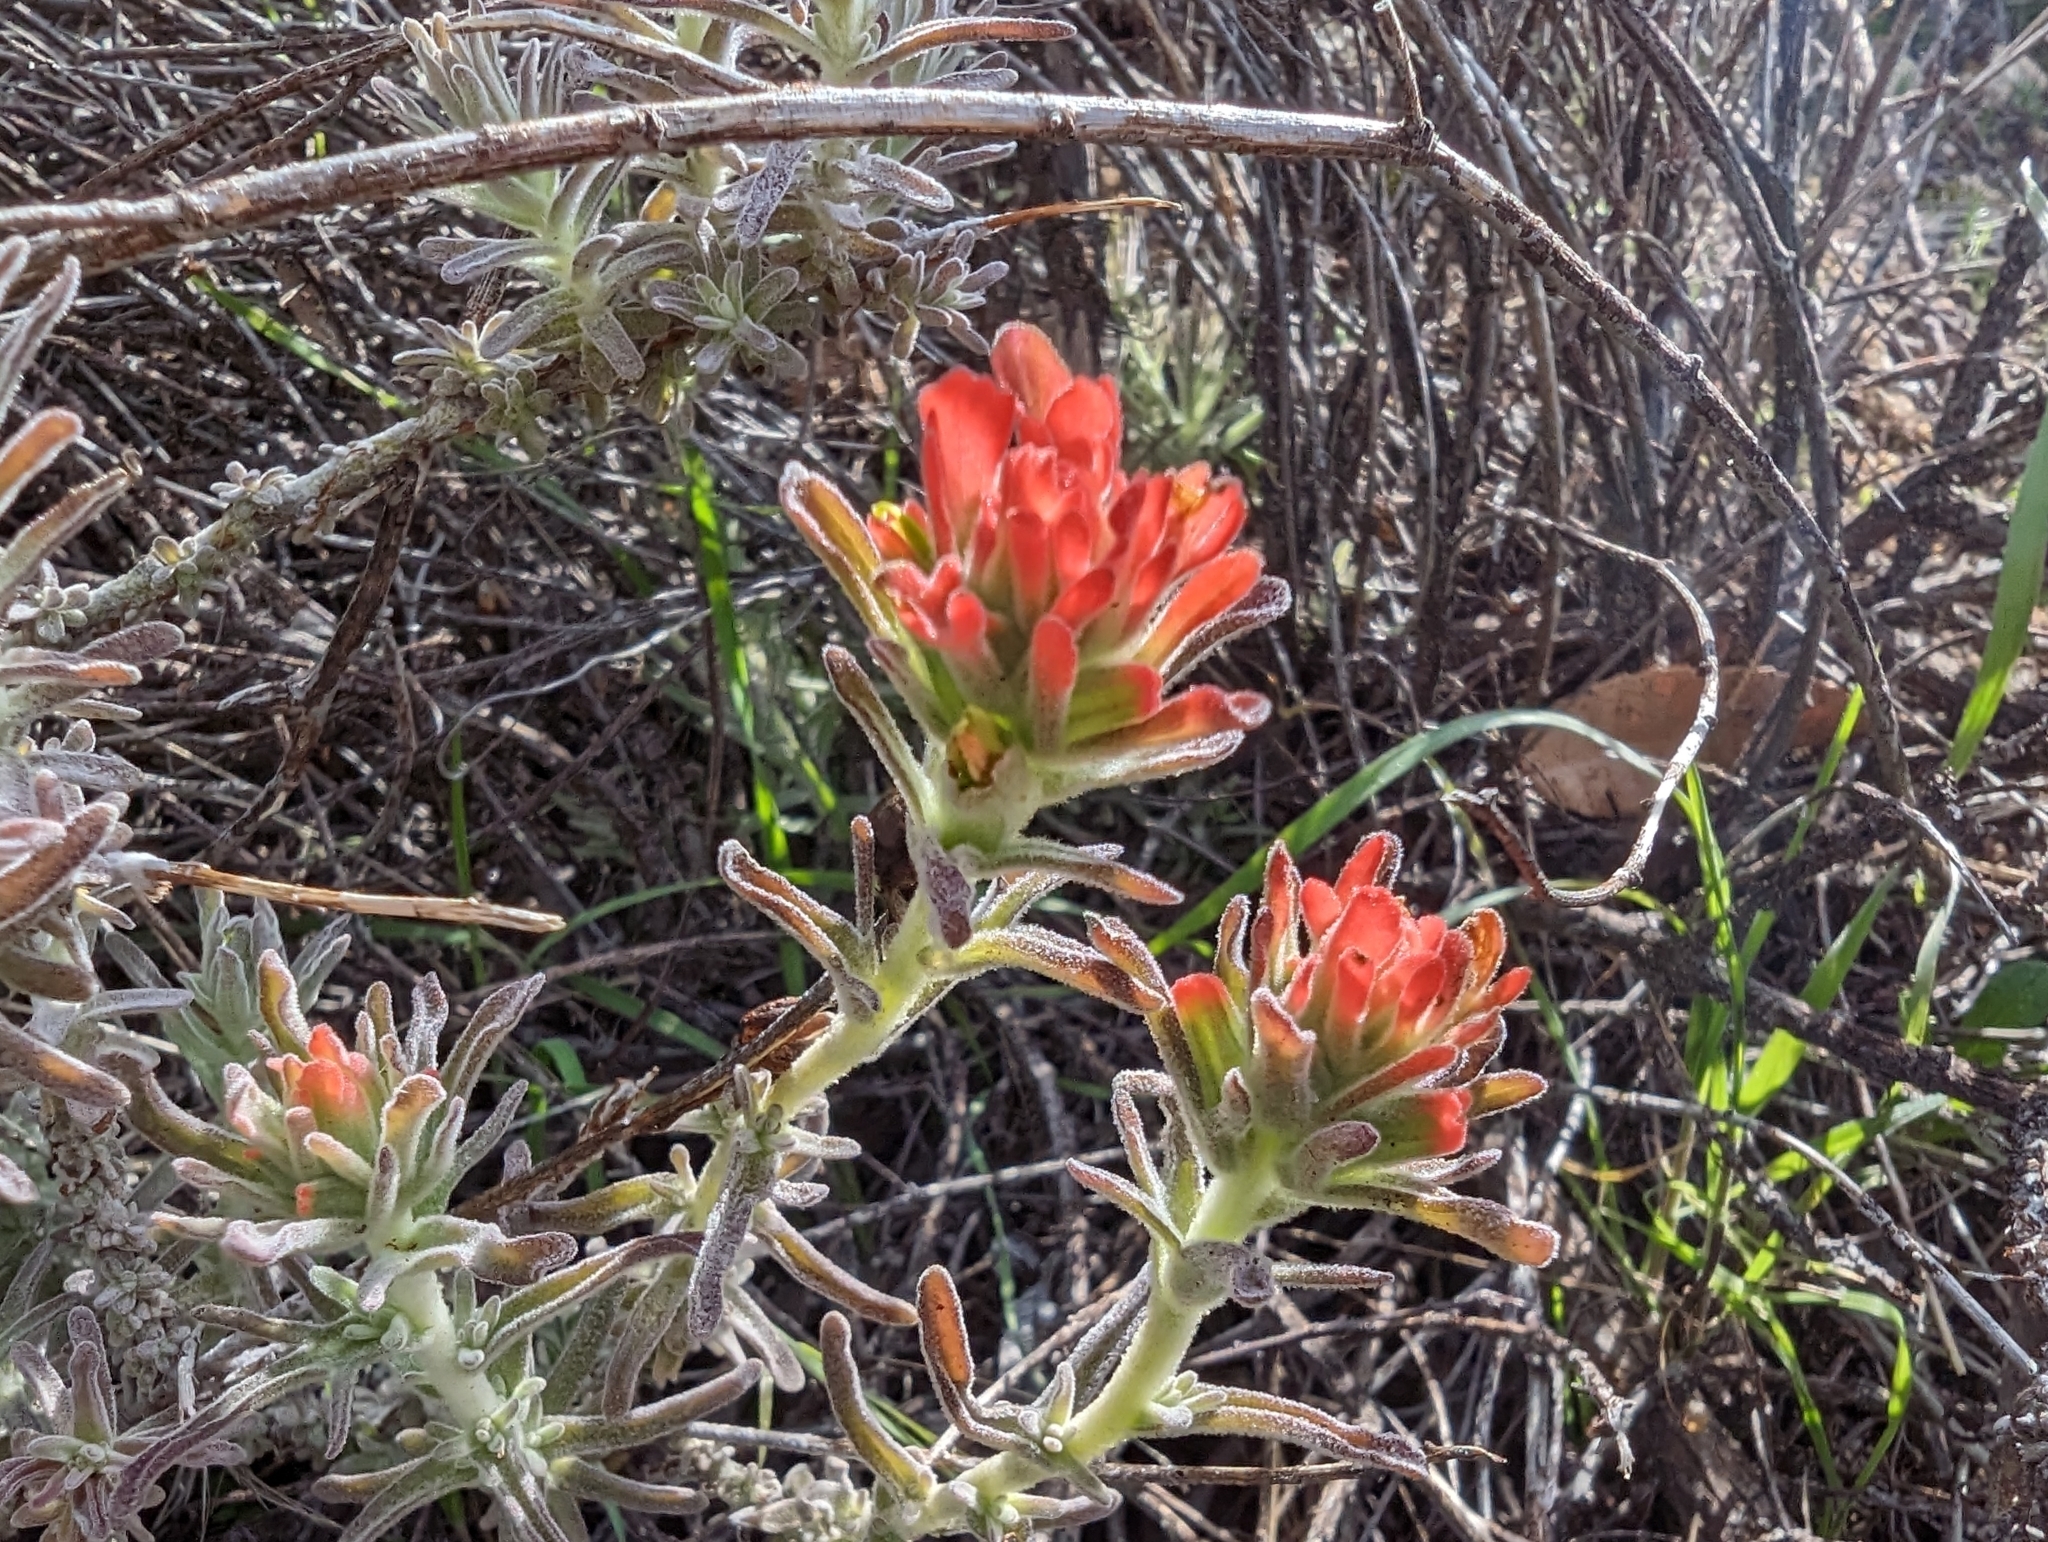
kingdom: Plantae
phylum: Tracheophyta
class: Magnoliopsida
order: Lamiales
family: Orobanchaceae
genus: Castilleja
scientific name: Castilleja foliolosa
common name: Woolly indian paintbrush
